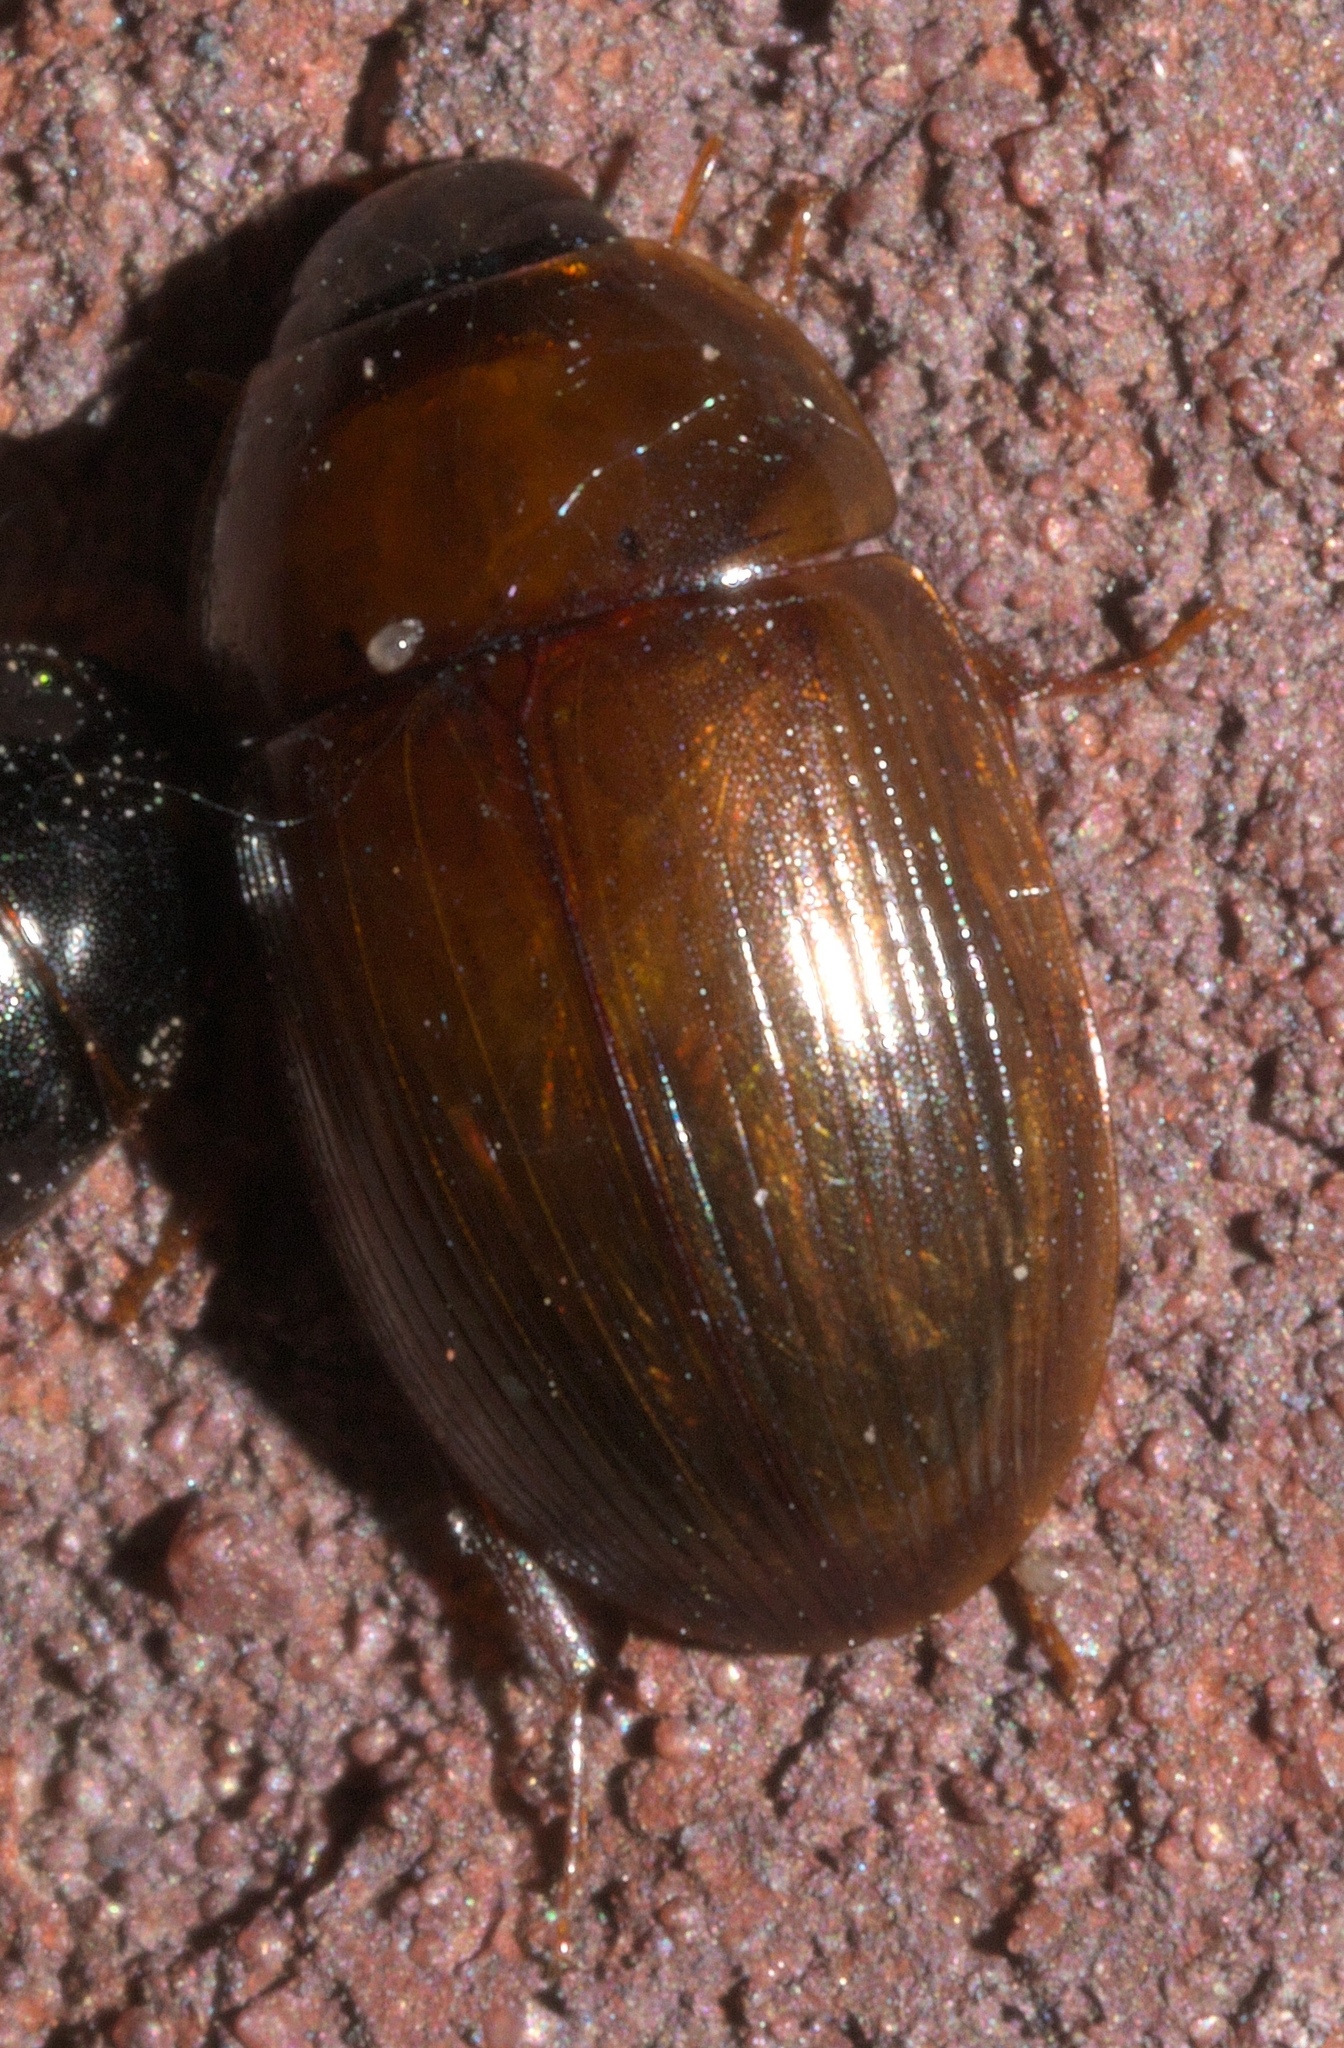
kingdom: Animalia
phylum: Arthropoda
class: Insecta
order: Coleoptera
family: Hydrophilidae
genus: Cymbiodyta
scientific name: Cymbiodyta bifida
